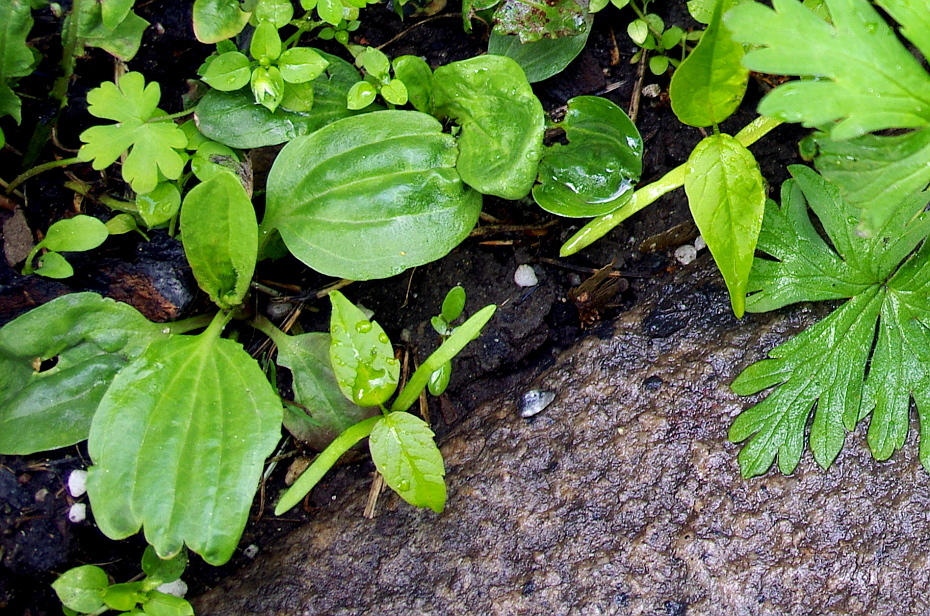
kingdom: Plantae
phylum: Tracheophyta
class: Magnoliopsida
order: Lamiales
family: Plantaginaceae
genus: Plantago
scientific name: Plantago major
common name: Common plantain
